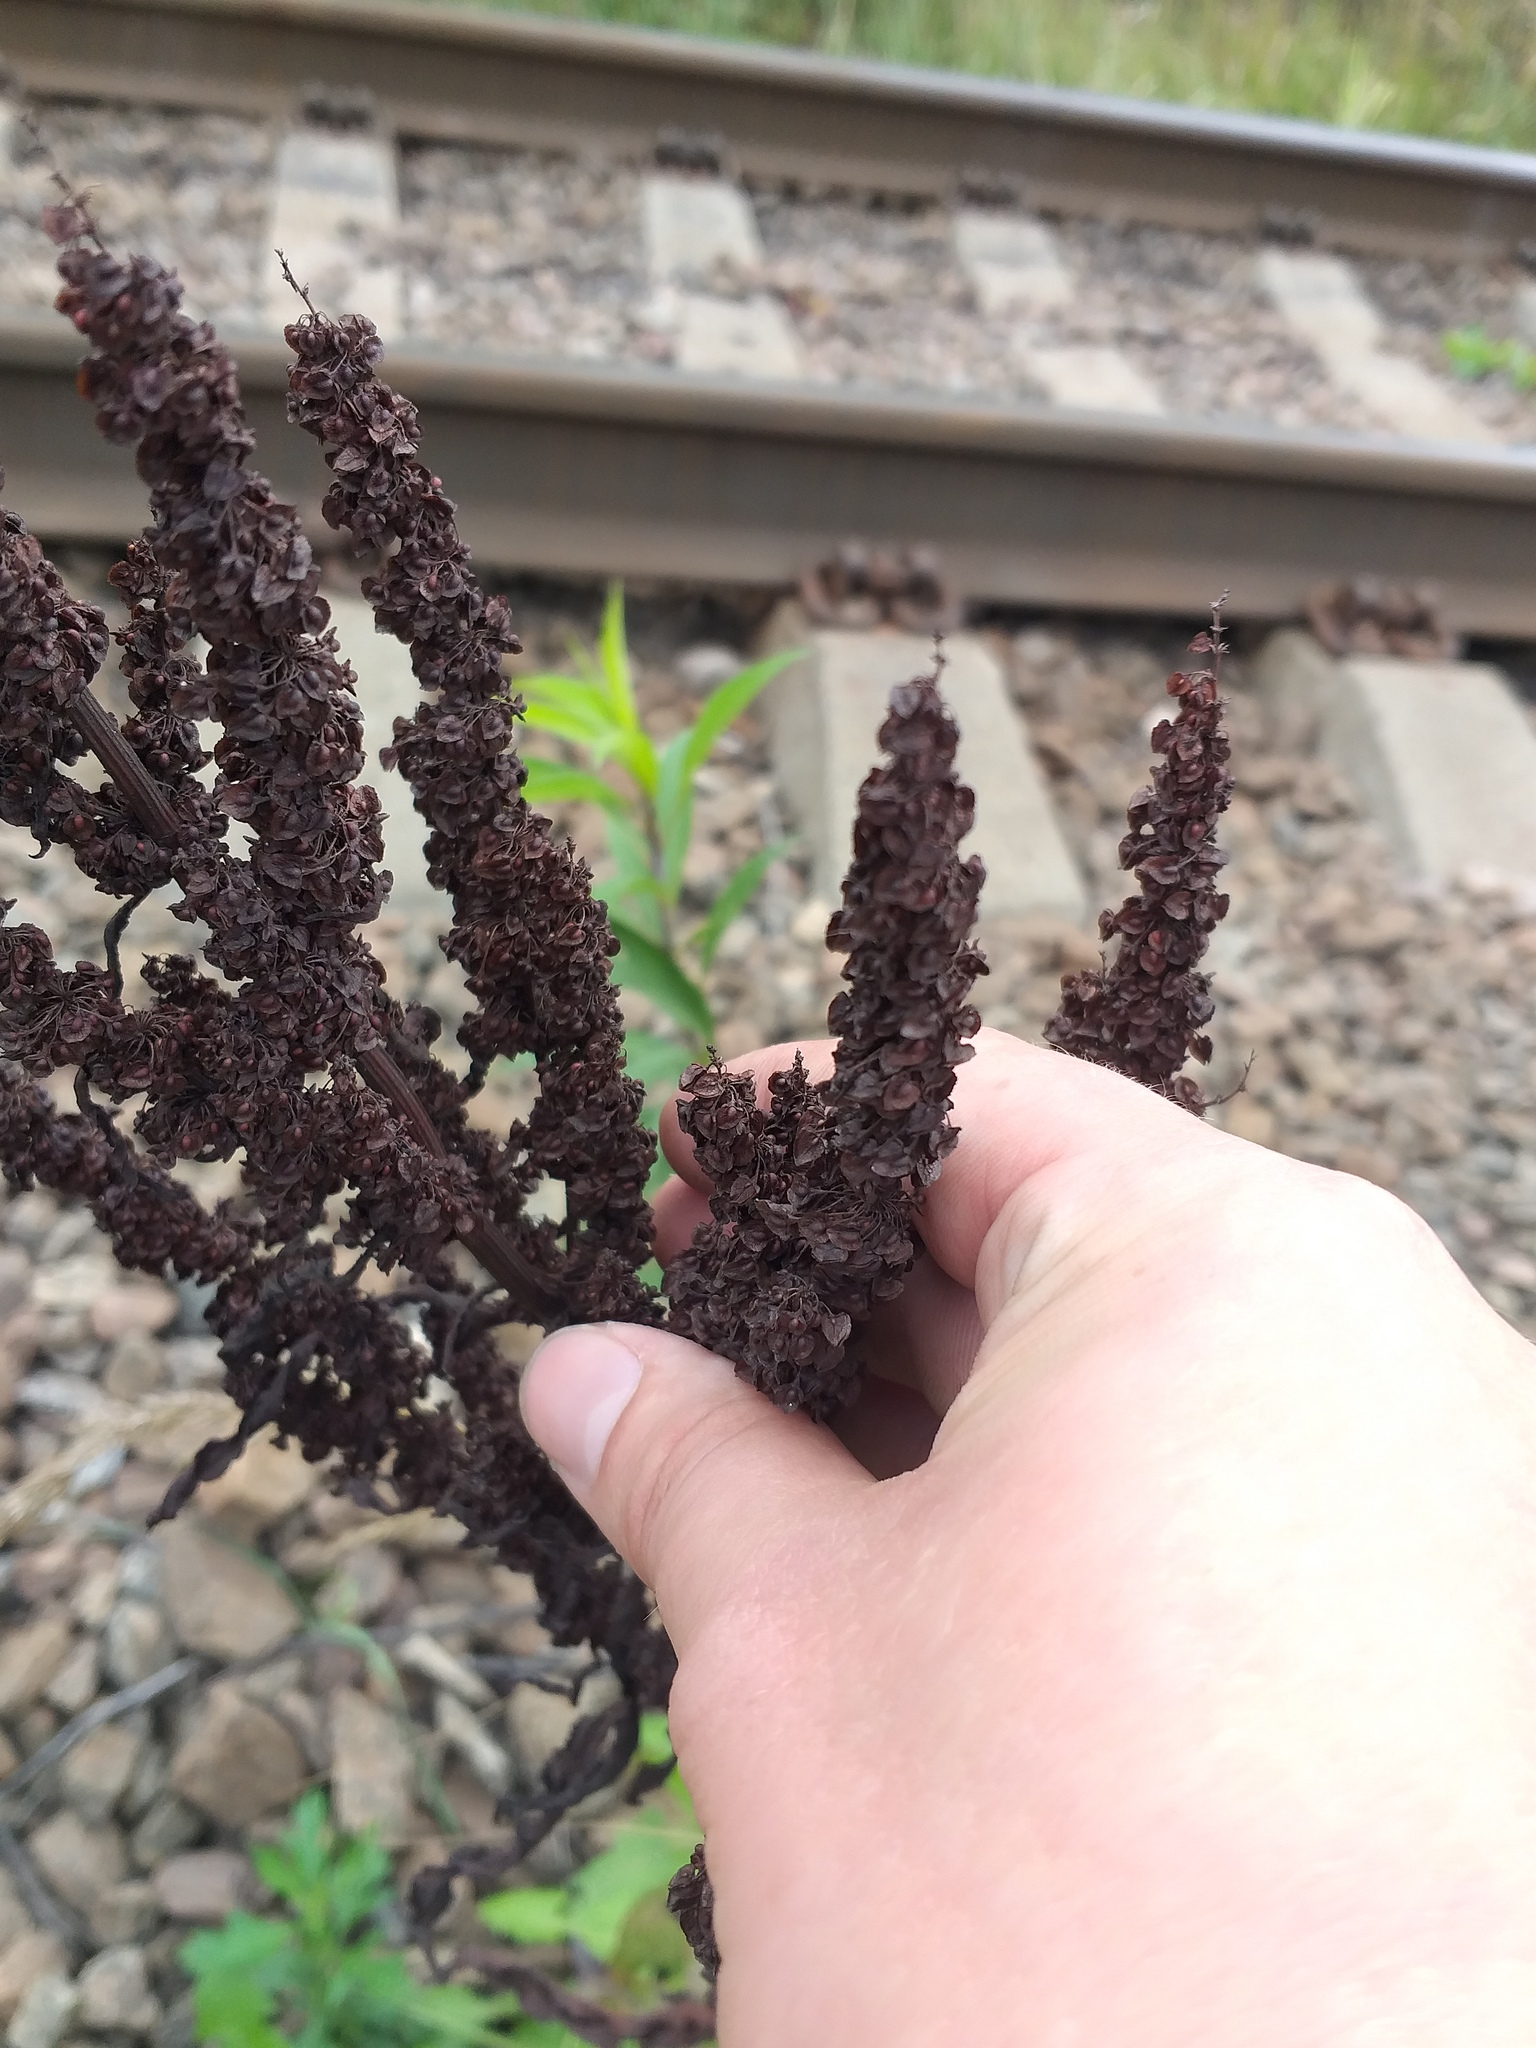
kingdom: Plantae
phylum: Tracheophyta
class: Magnoliopsida
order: Caryophyllales
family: Polygonaceae
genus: Rumex
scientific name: Rumex crispus
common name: Curled dock
